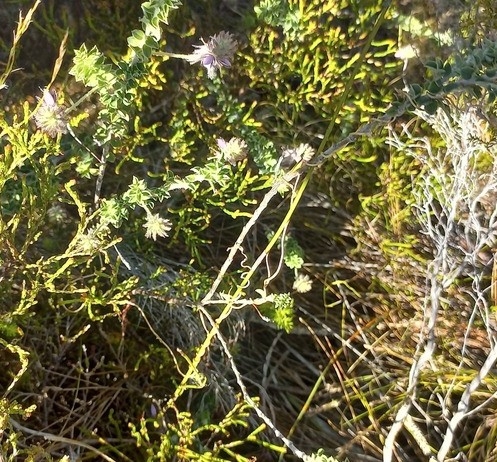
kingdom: Plantae
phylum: Tracheophyta
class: Magnoliopsida
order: Fabales
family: Fabaceae
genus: Indigofera
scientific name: Indigofera alopecuroides
